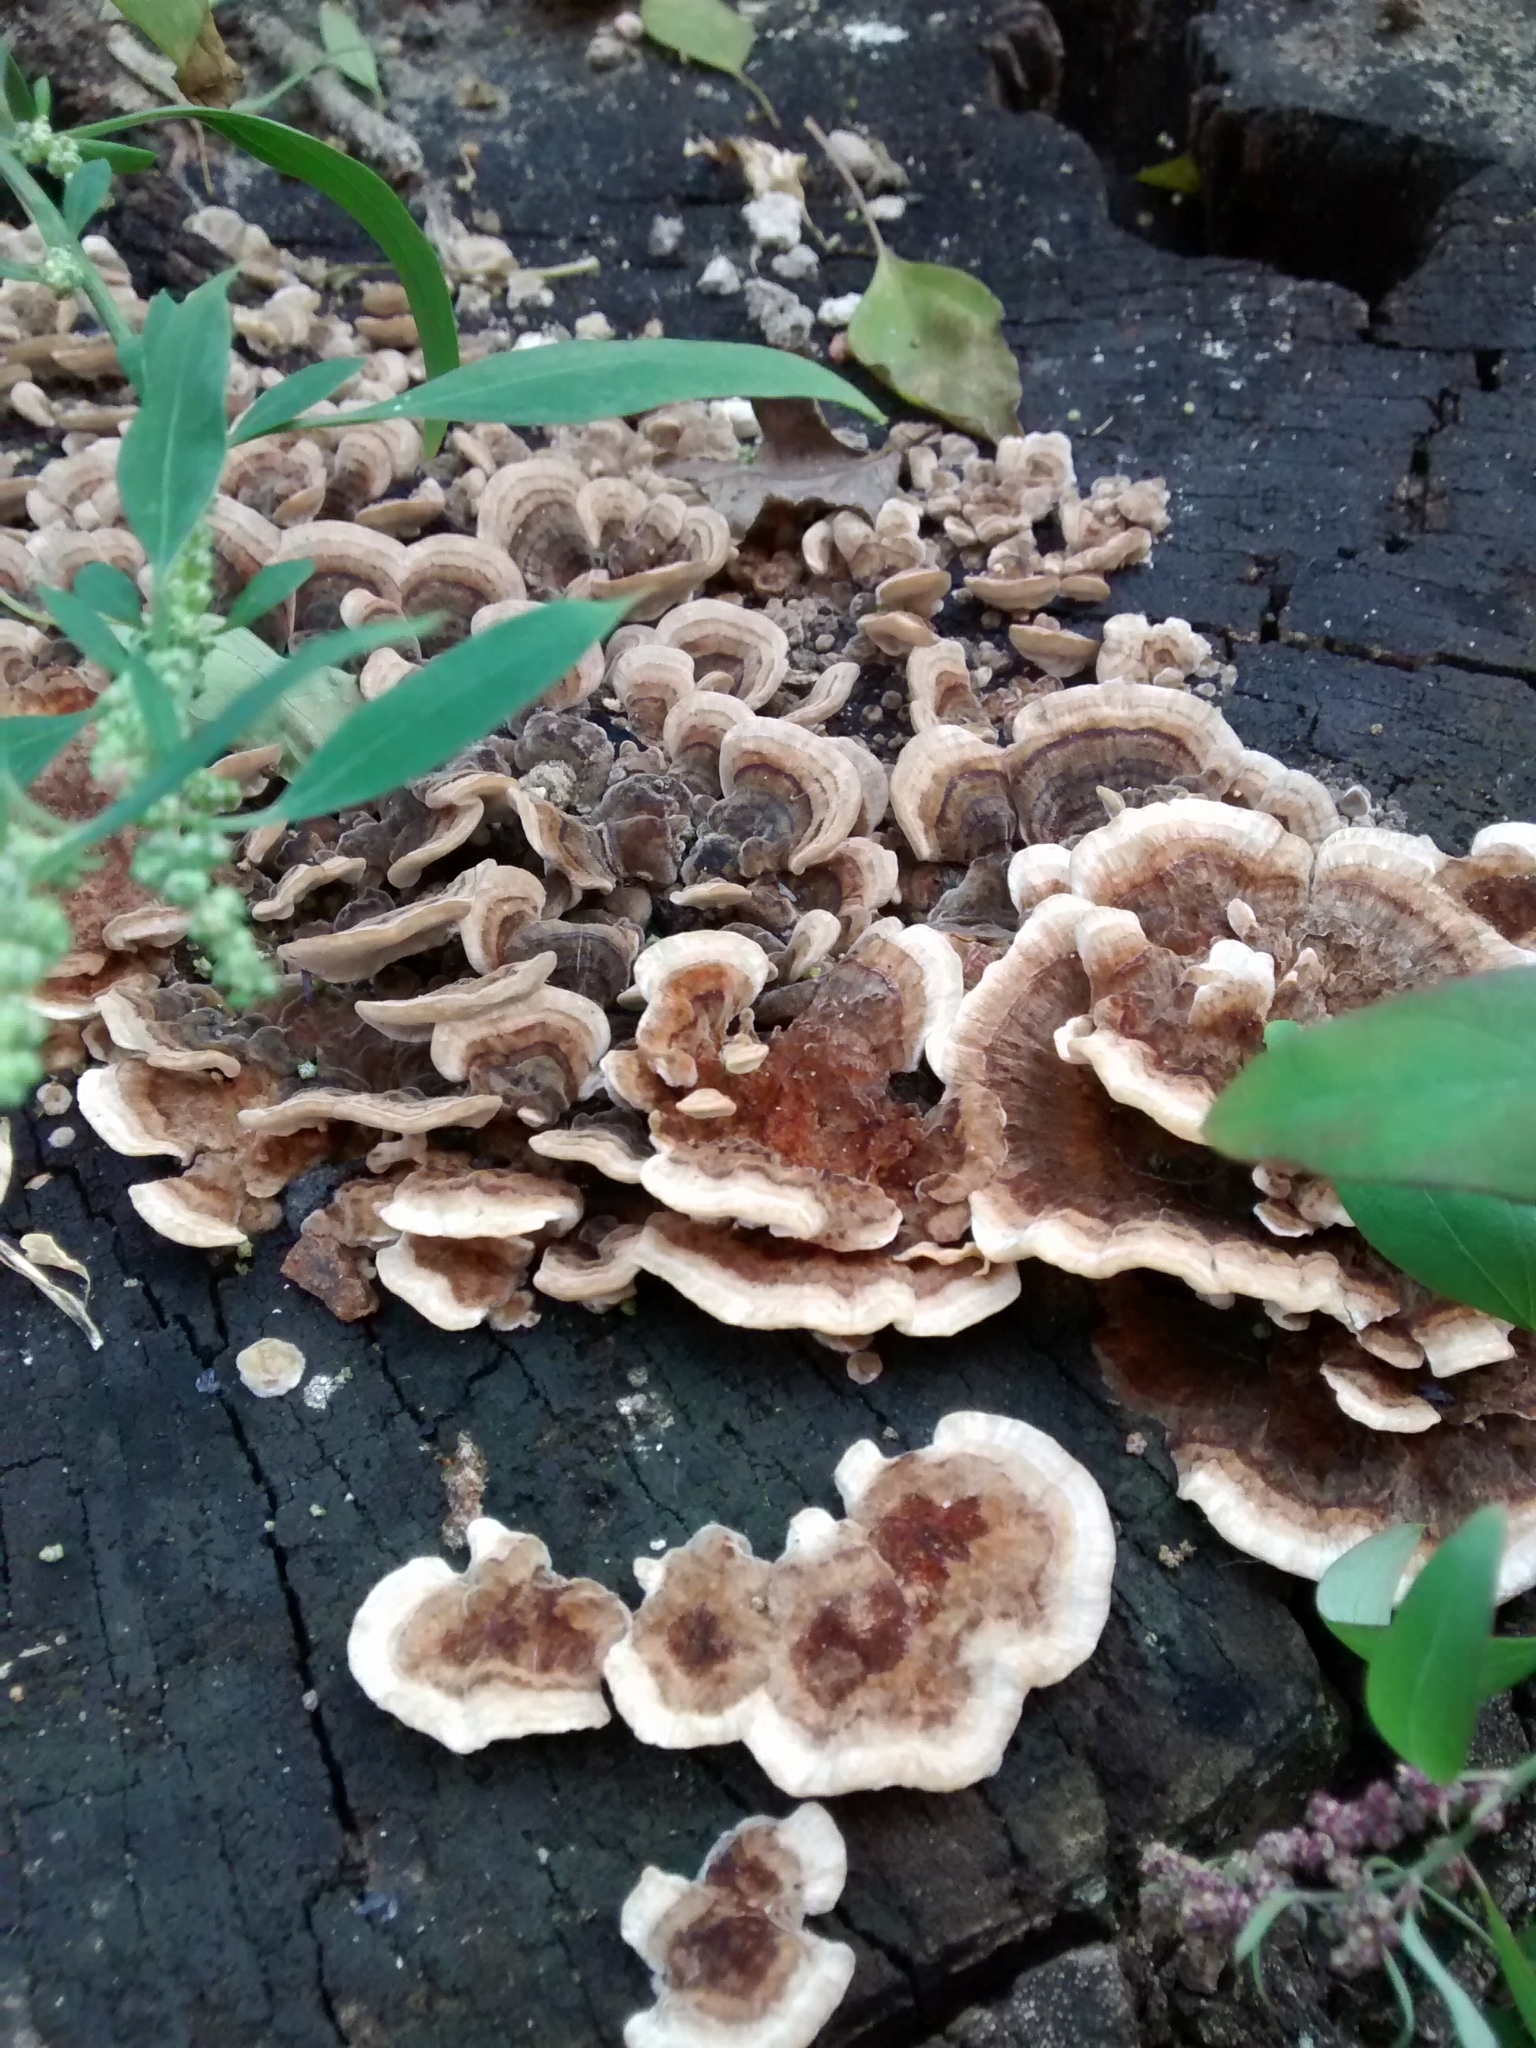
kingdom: Fungi
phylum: Basidiomycota
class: Agaricomycetes
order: Polyporales
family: Polyporaceae
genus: Trametes
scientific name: Trametes versicolor
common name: Turkeytail
